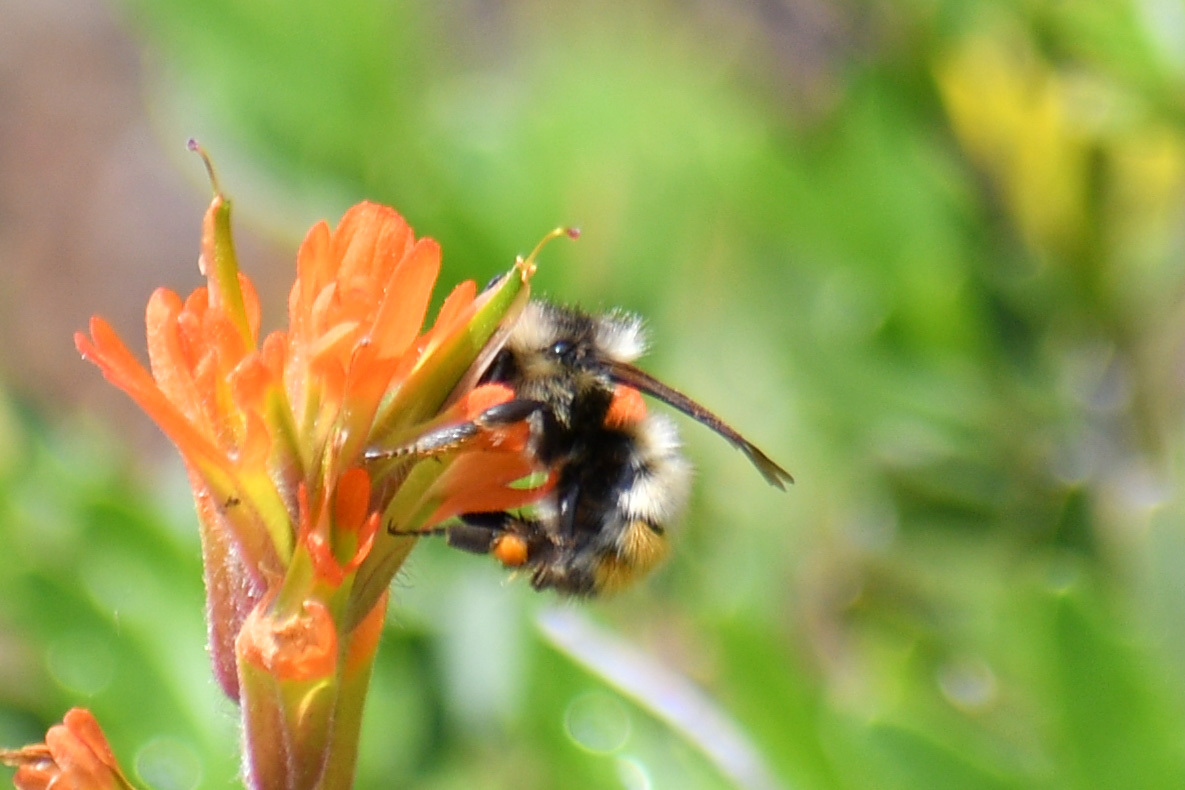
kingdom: Animalia
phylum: Arthropoda
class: Insecta
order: Hymenoptera
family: Apidae
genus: Bombus
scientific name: Bombus centralis
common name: Central bumble bee
